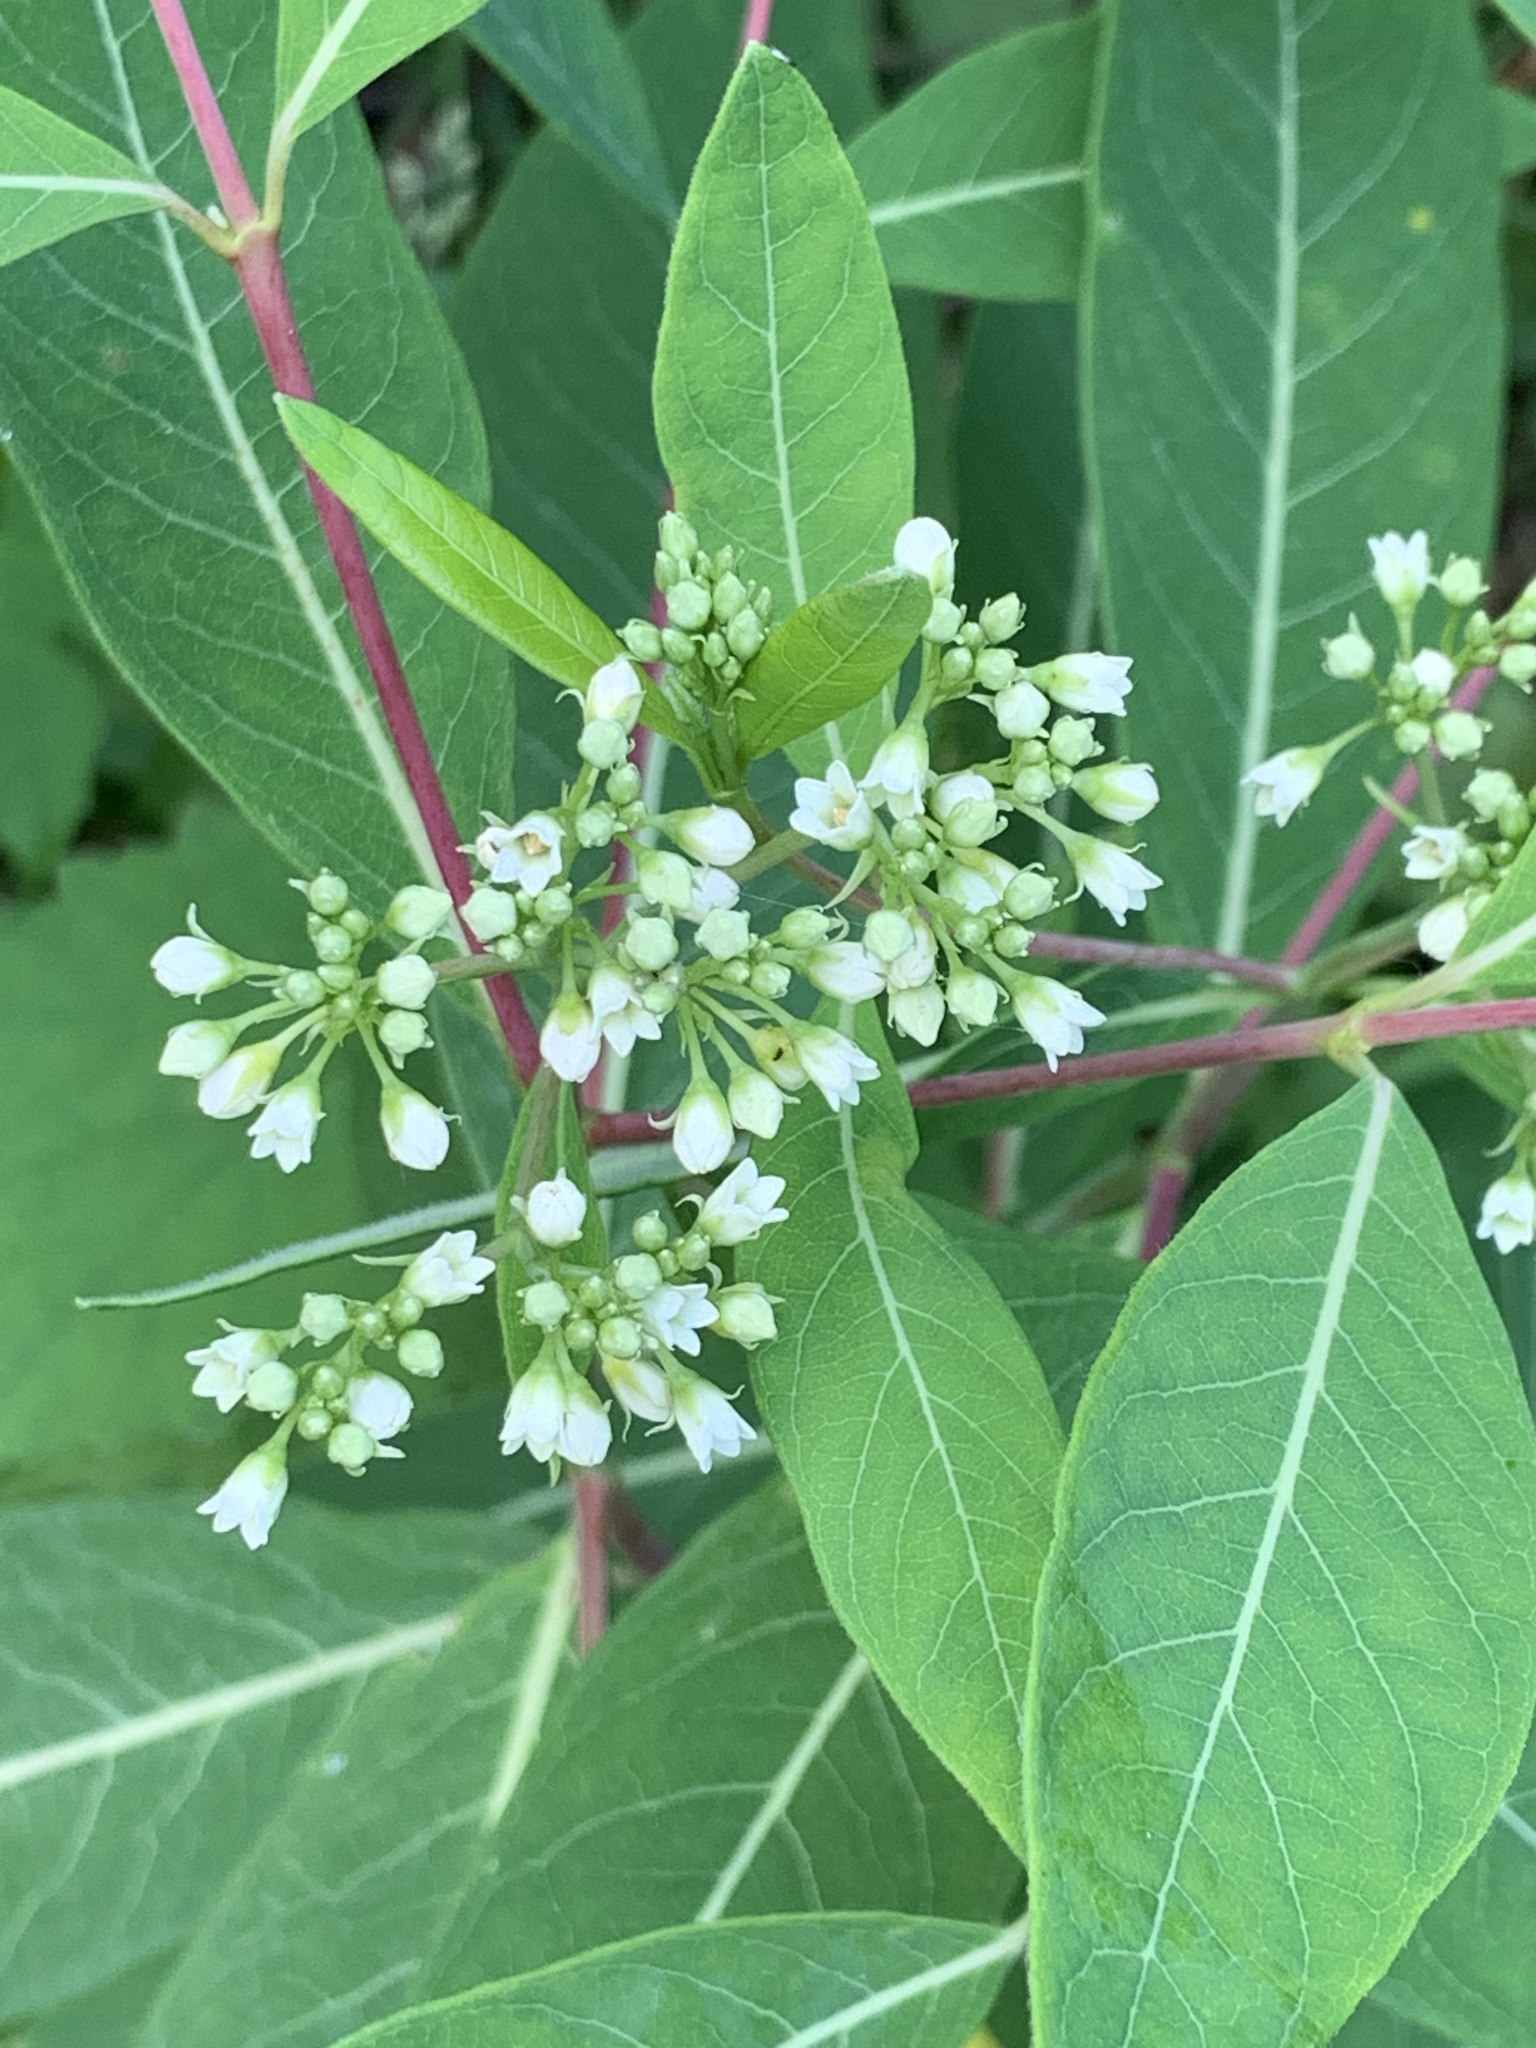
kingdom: Plantae
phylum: Tracheophyta
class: Magnoliopsida
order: Gentianales
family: Apocynaceae
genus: Apocynum
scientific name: Apocynum cannabinum
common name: Hemp dogbane
